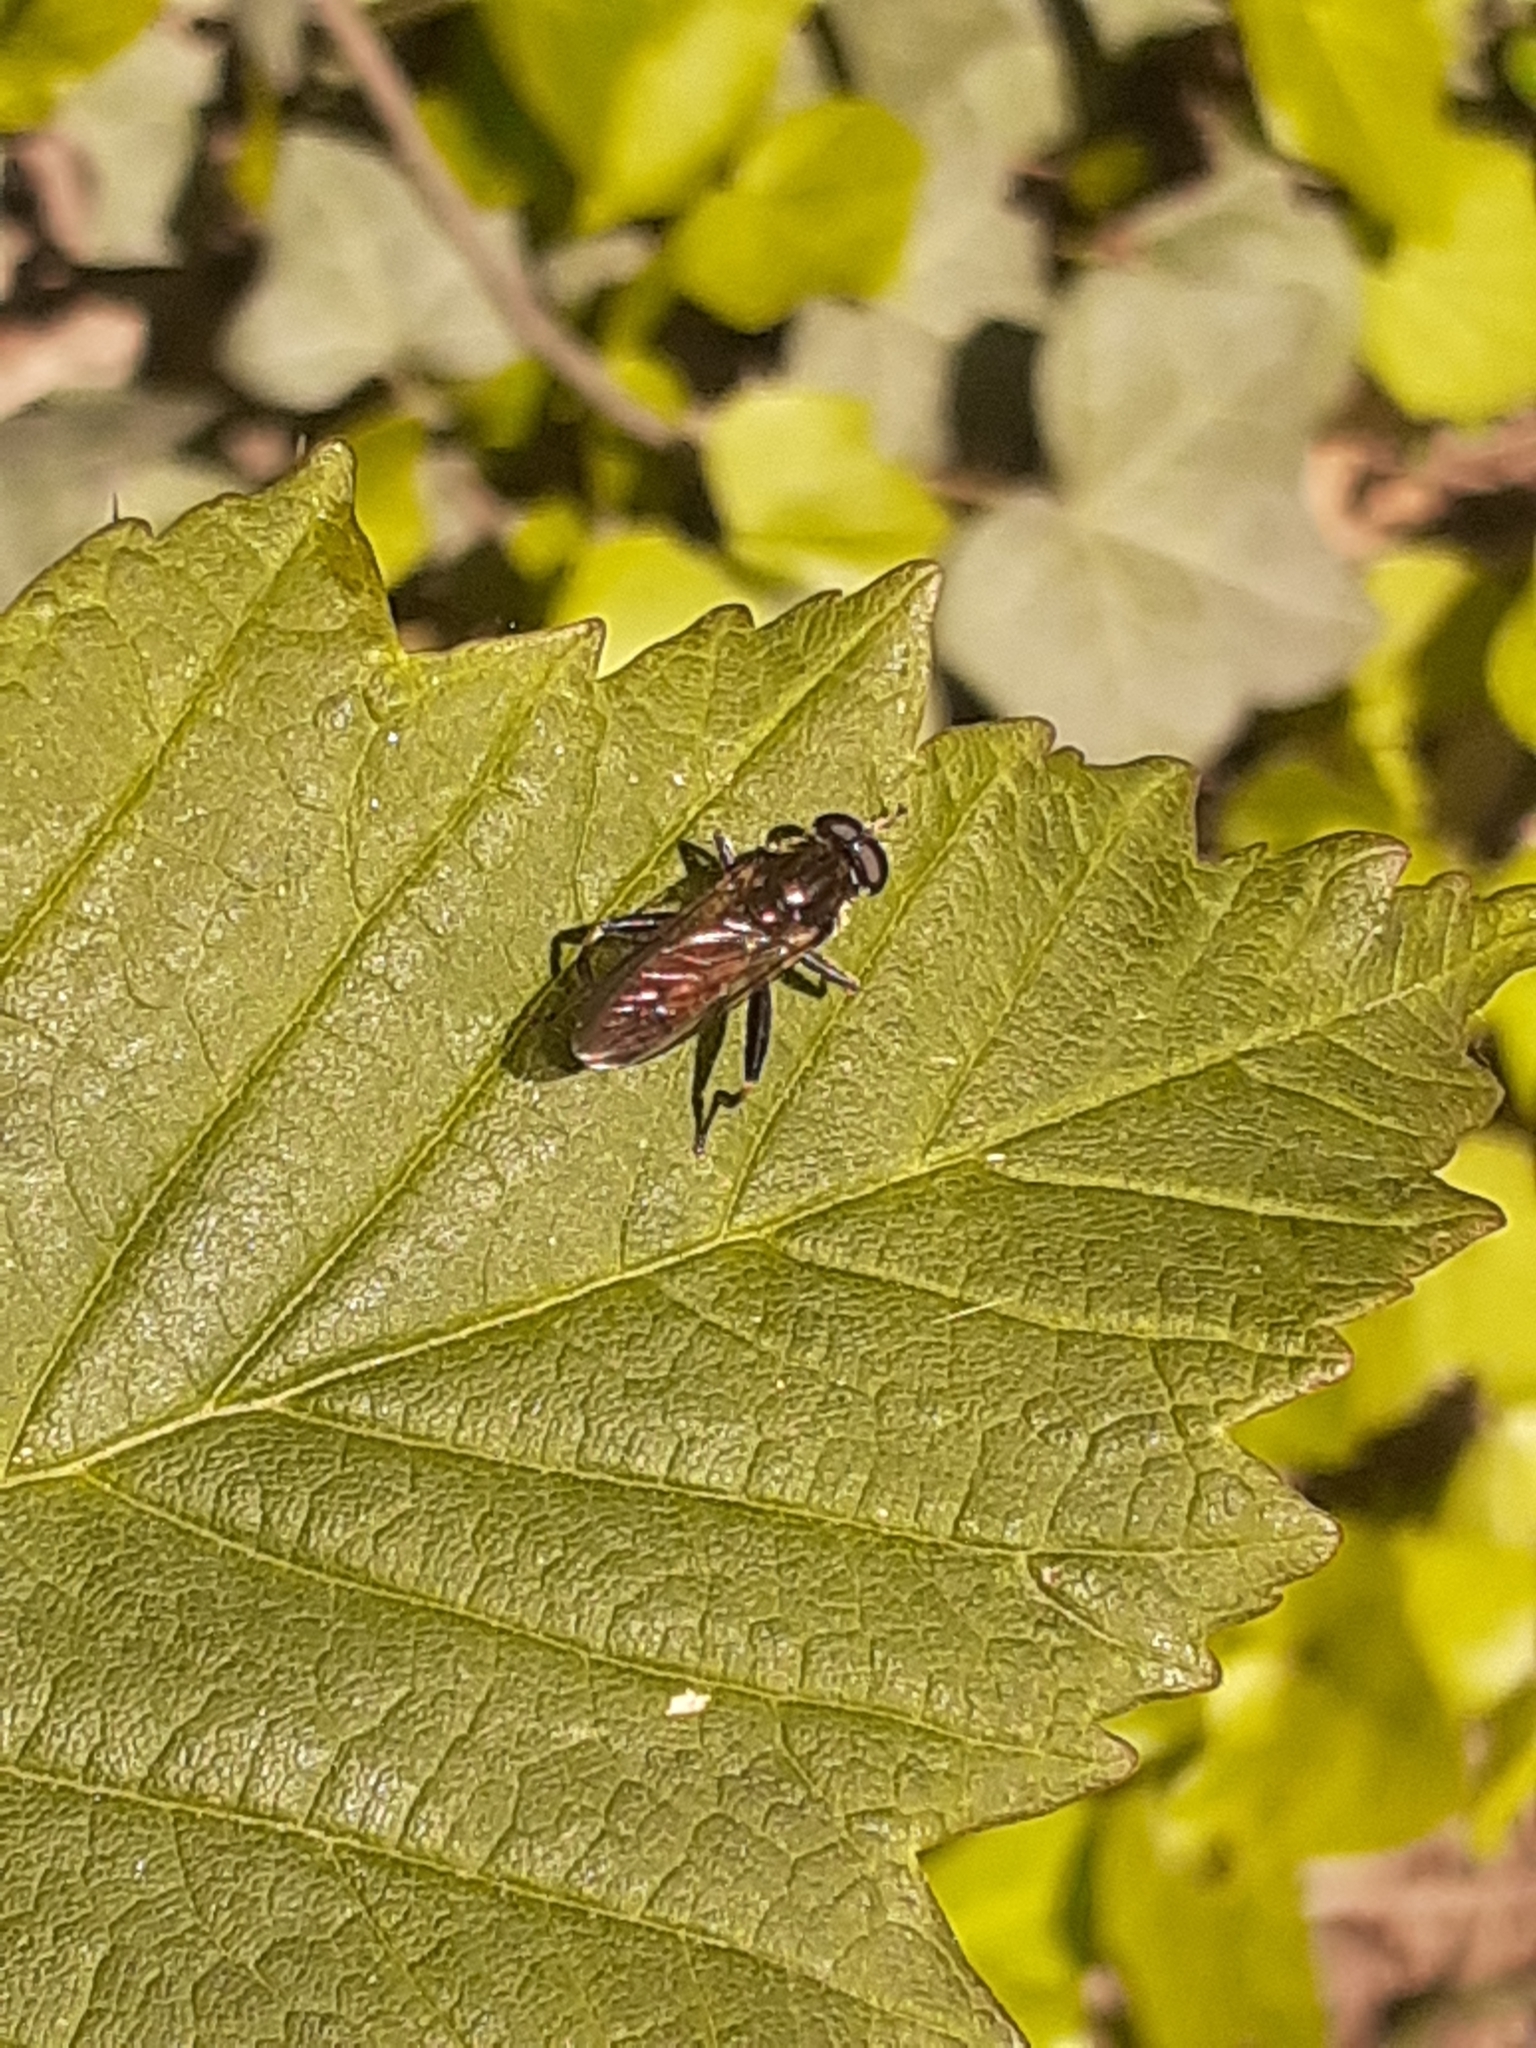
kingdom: Animalia
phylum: Arthropoda
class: Insecta
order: Diptera
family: Syrphidae
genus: Brachypalpoides
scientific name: Brachypalpoides lenta
